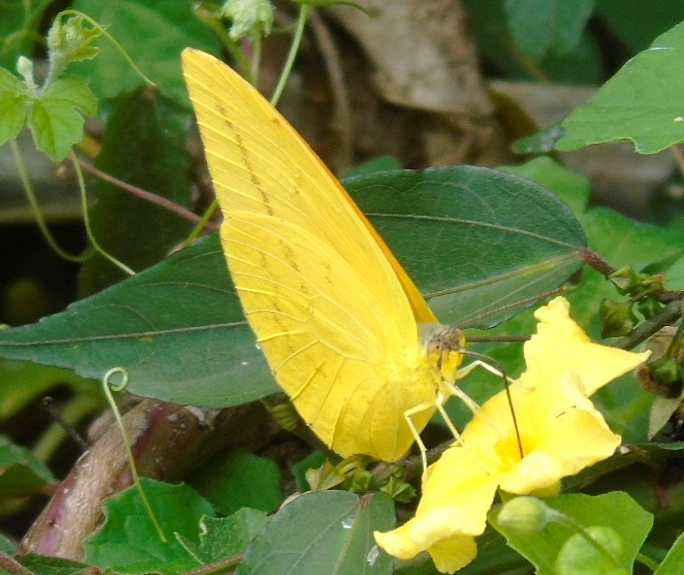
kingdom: Animalia
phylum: Arthropoda
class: Insecta
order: Lepidoptera
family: Pieridae
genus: Phoebis
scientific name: Phoebis agarithe
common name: Large orange sulphur
